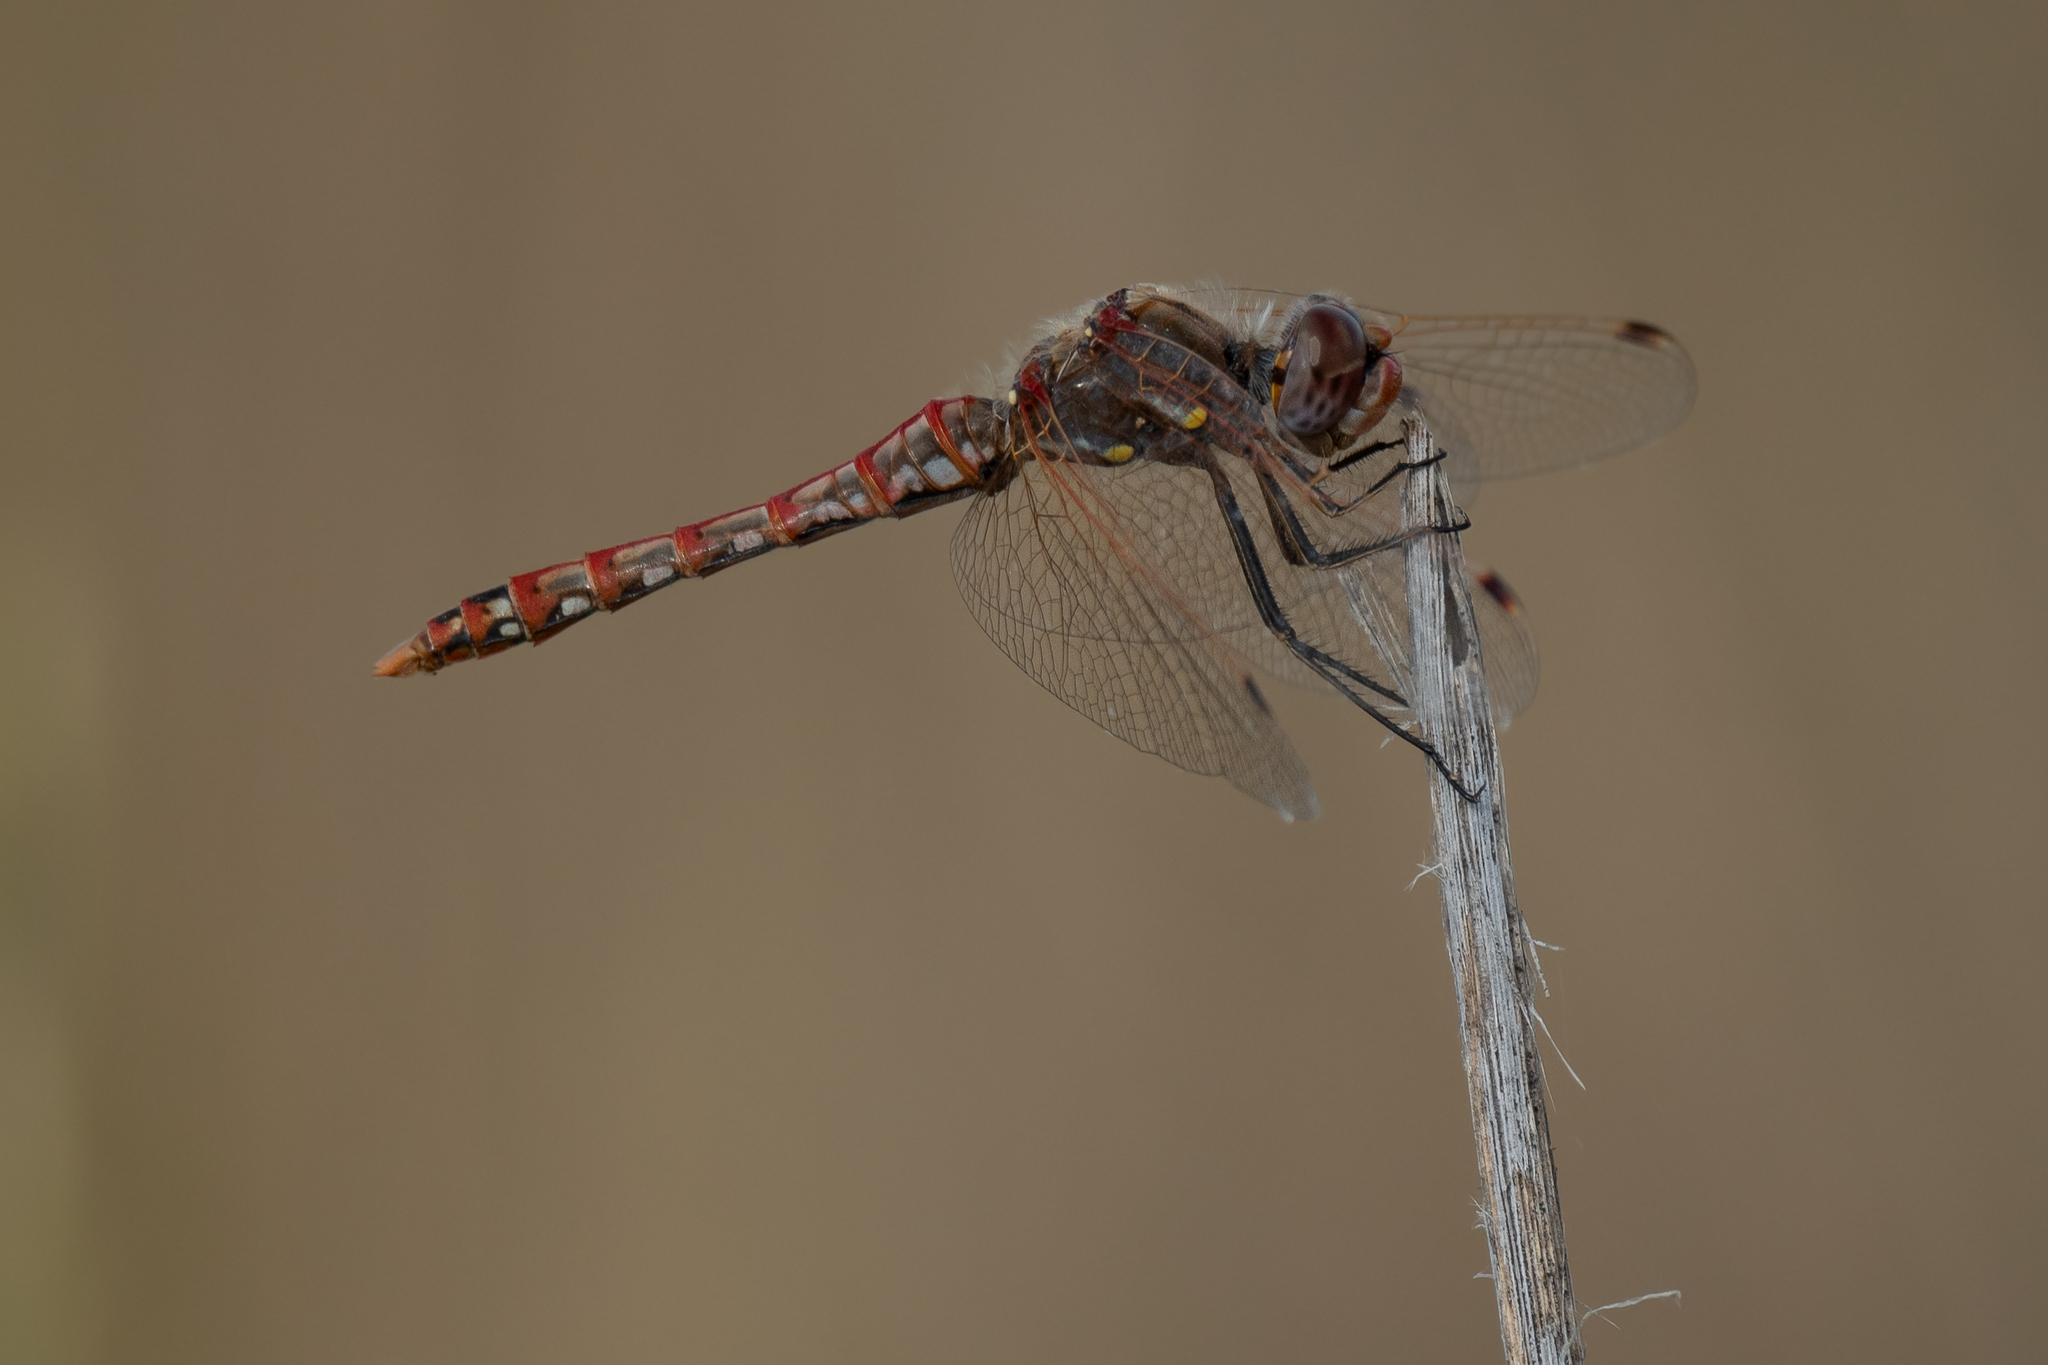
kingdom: Animalia
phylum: Arthropoda
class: Insecta
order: Odonata
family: Libellulidae
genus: Sympetrum
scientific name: Sympetrum corruptum
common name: Variegated meadowhawk
